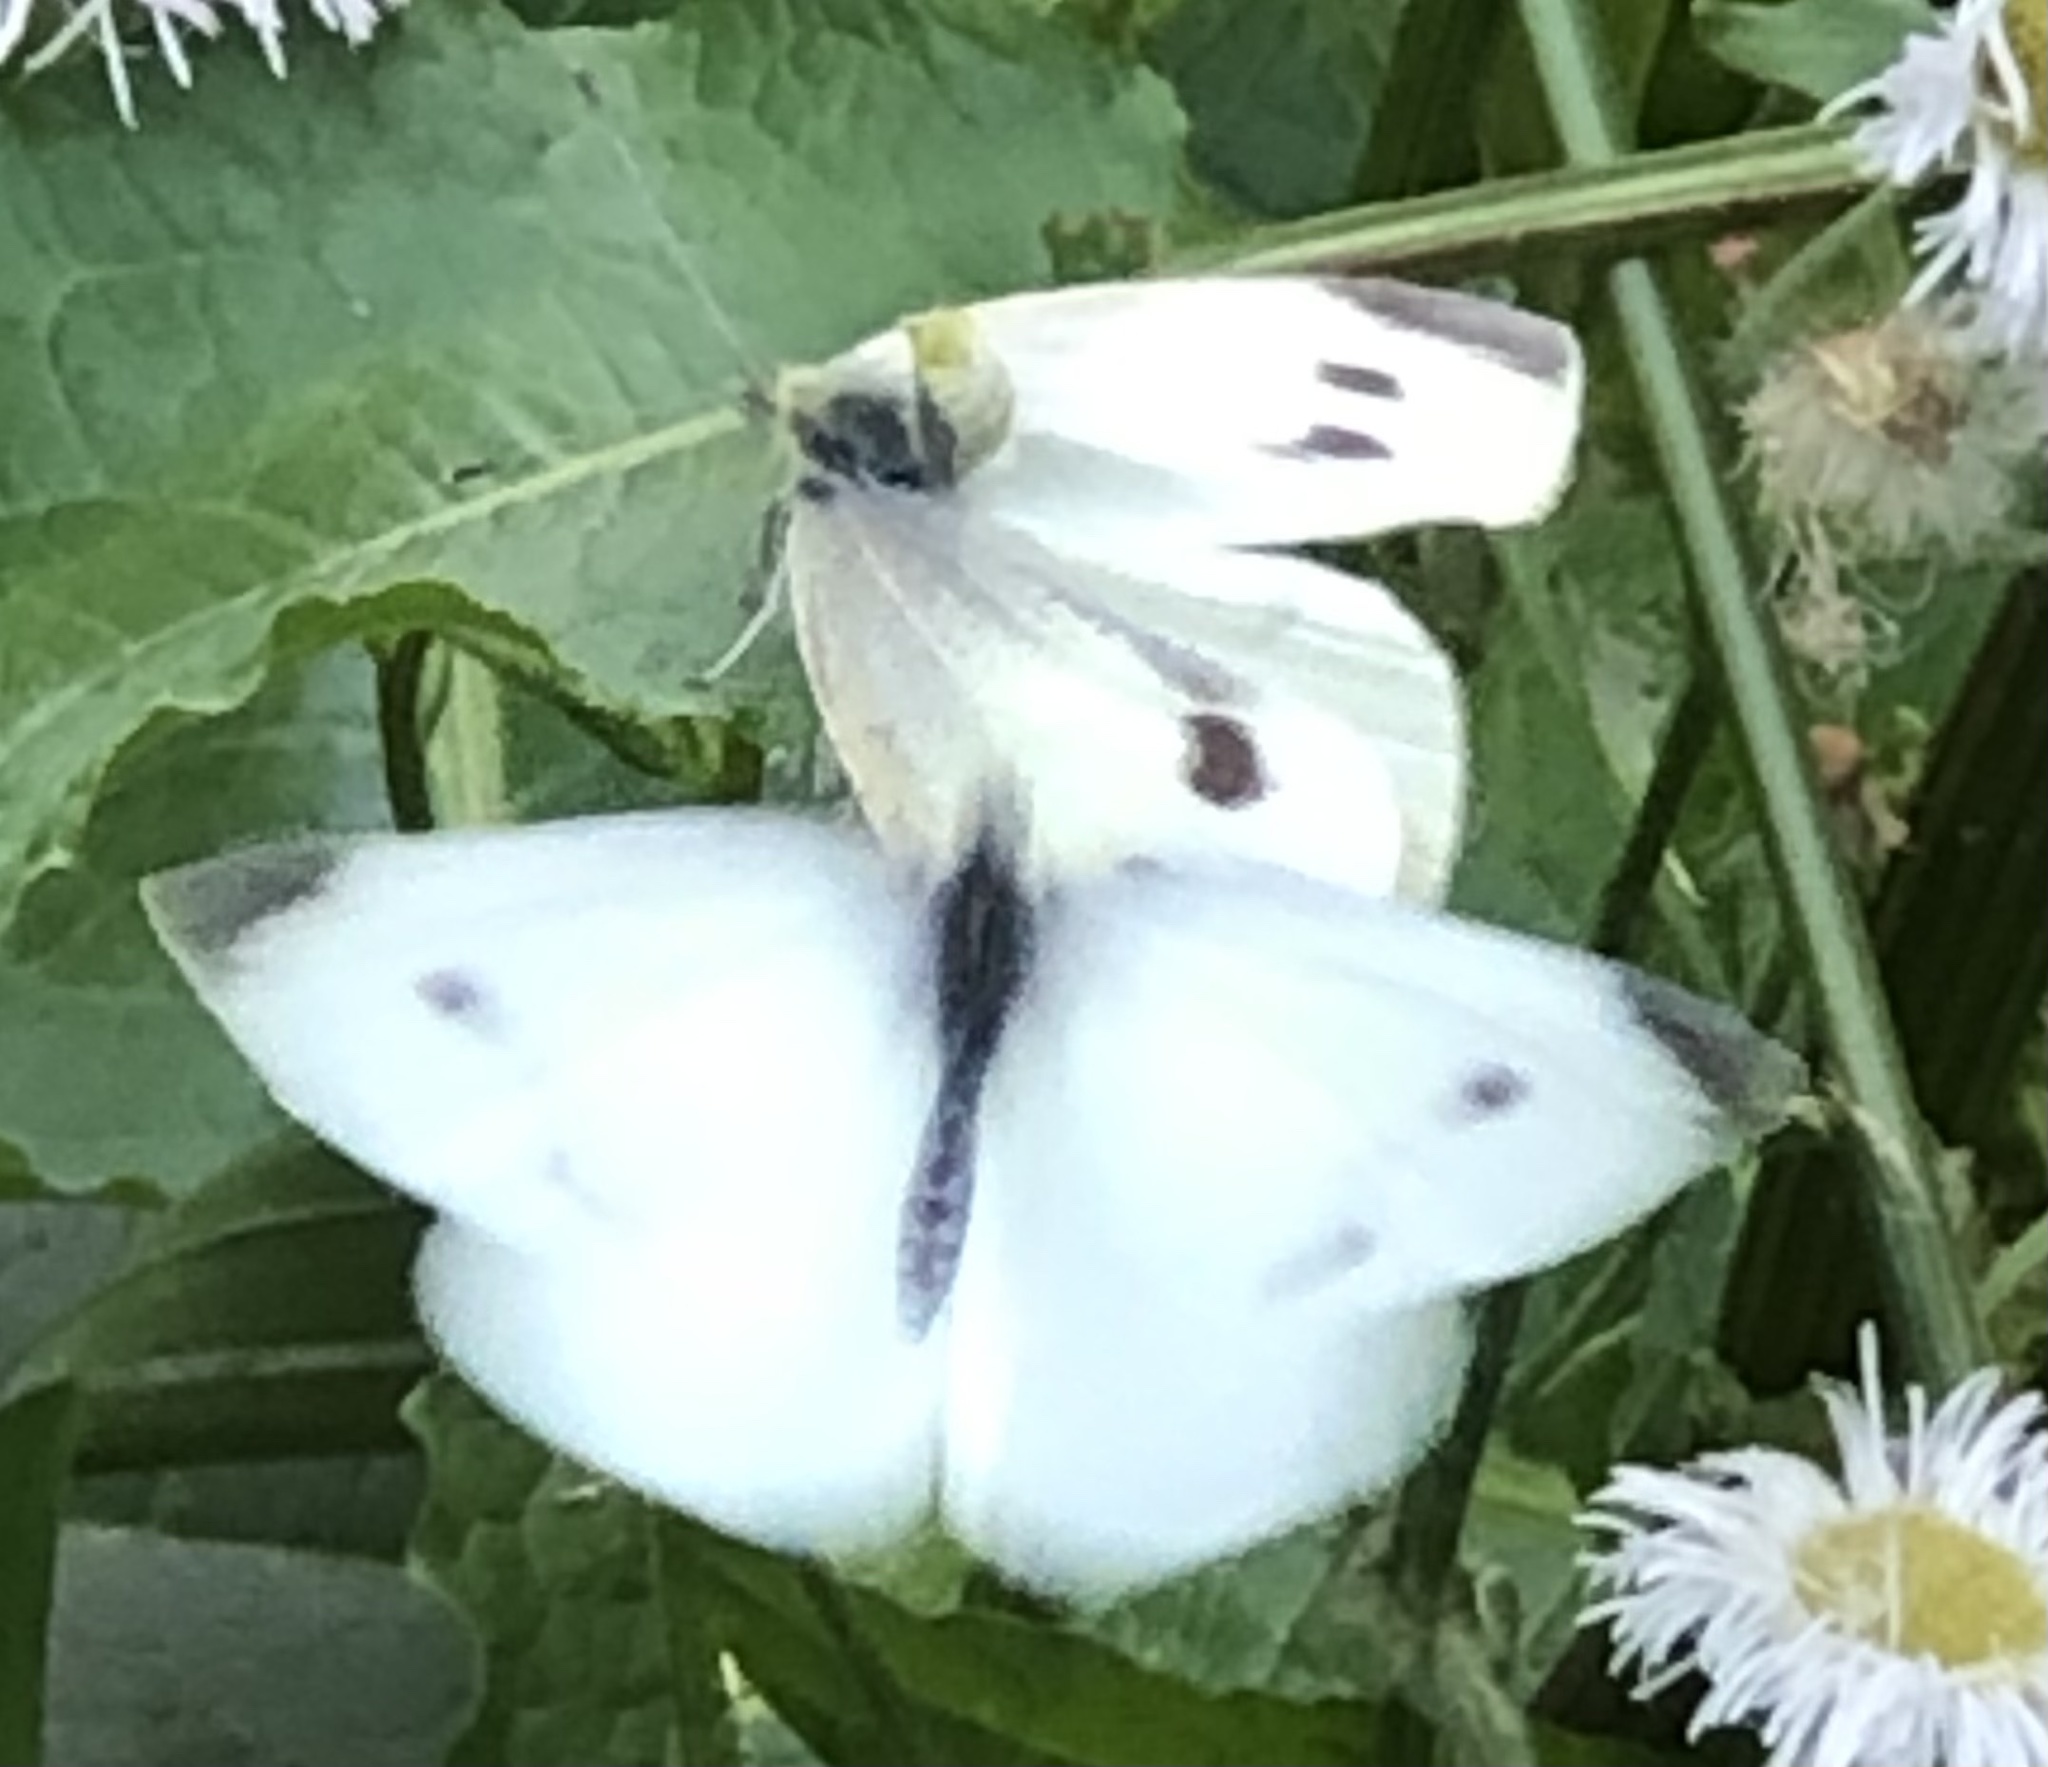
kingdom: Animalia
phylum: Arthropoda
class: Insecta
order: Lepidoptera
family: Pieridae
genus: Pieris
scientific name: Pieris rapae
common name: Small white
